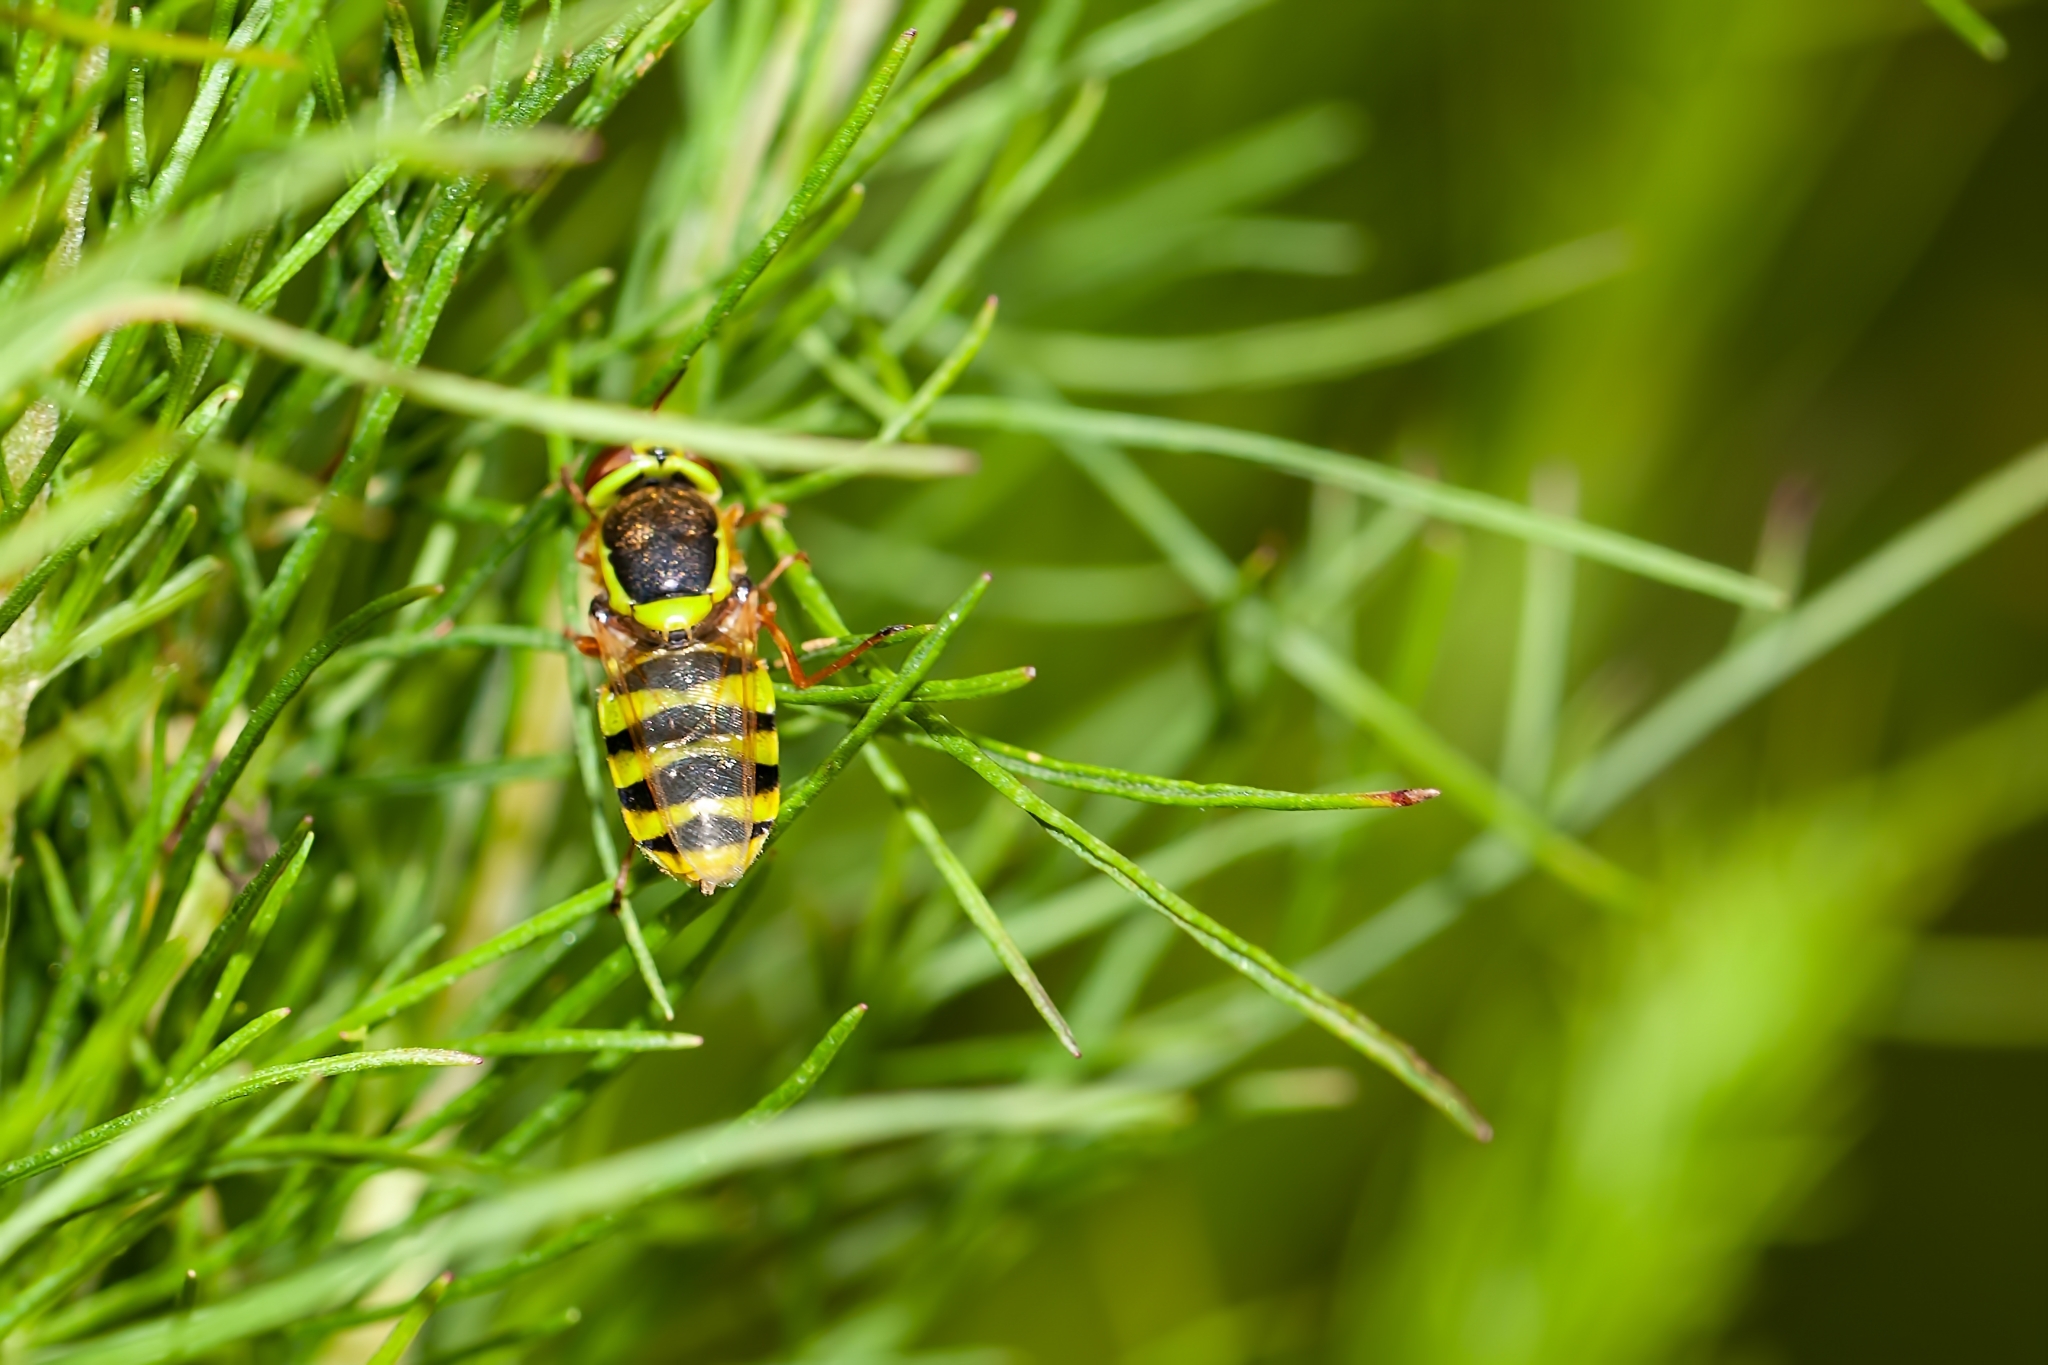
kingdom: Animalia
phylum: Arthropoda
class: Insecta
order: Diptera
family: Stratiomyidae
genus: Odontomyia
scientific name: Odontomyia cincta
